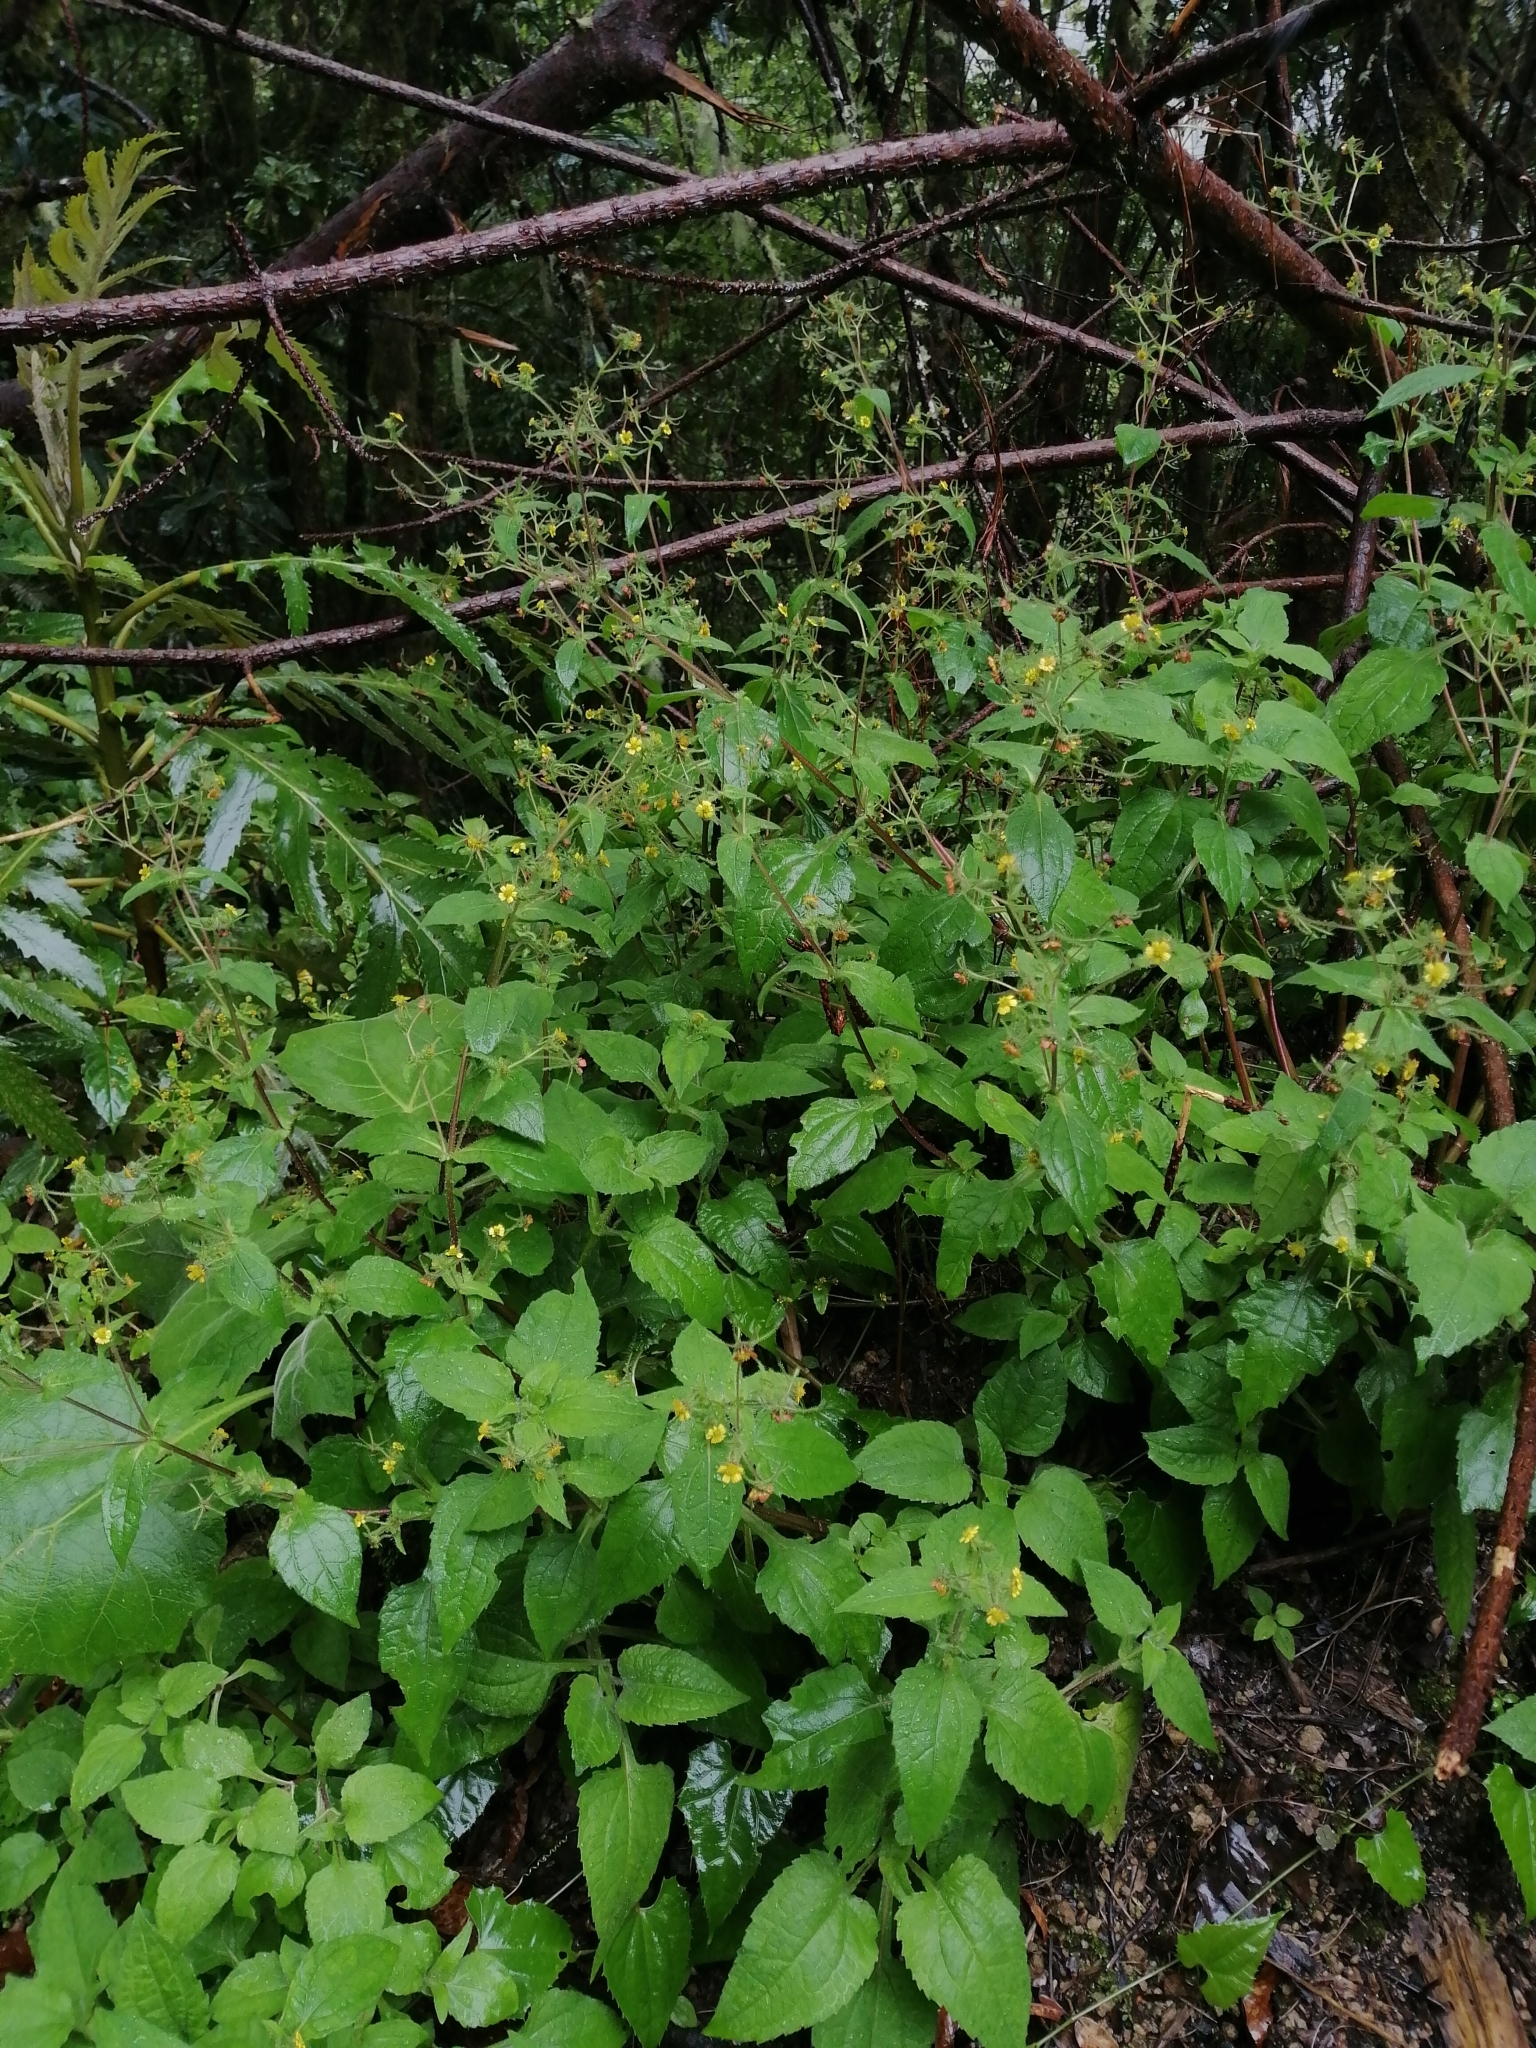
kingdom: Plantae
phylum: Tracheophyta
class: Magnoliopsida
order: Asterales
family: Asteraceae
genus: Sigesbeckia
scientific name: Sigesbeckia jorullensis
